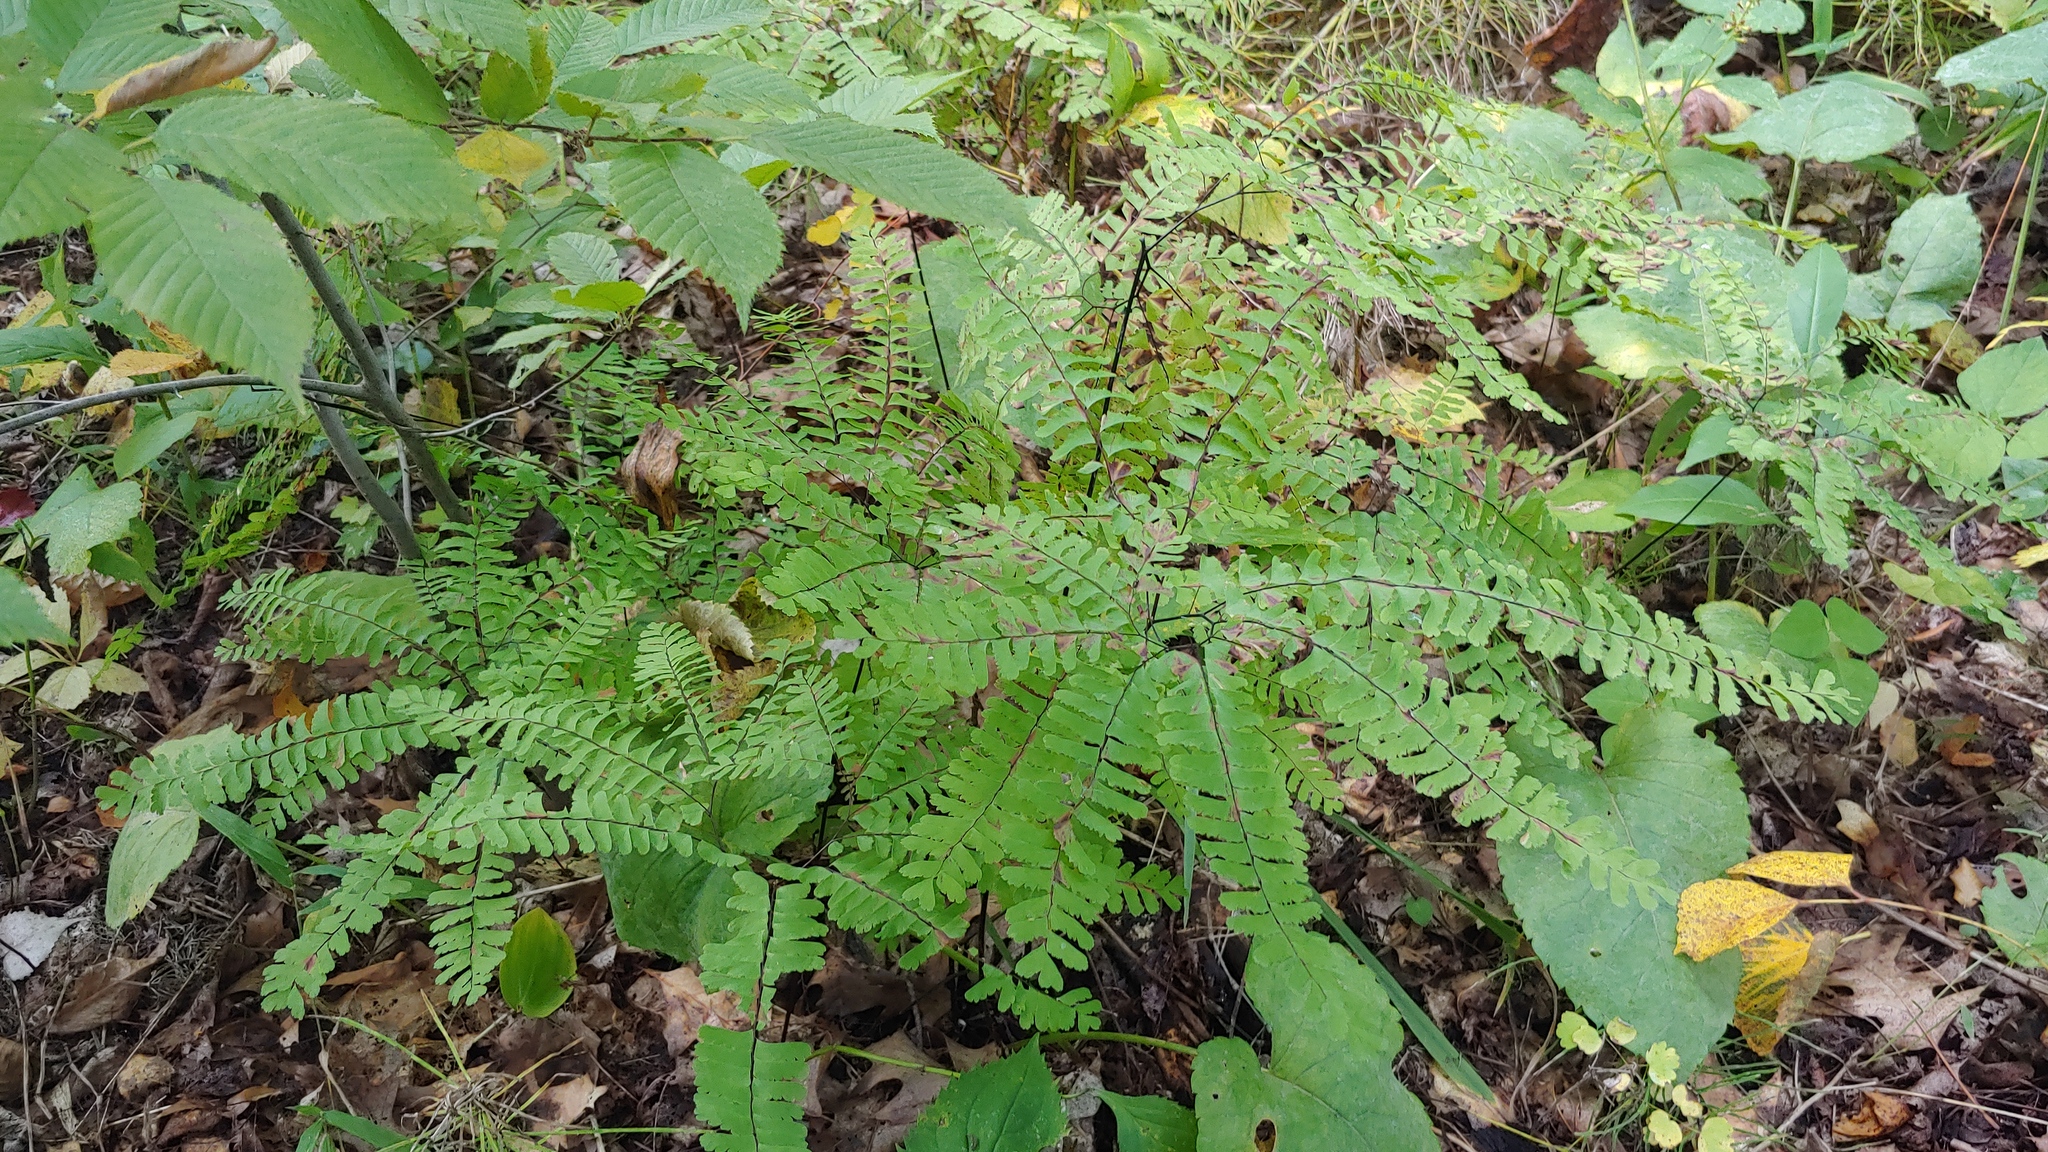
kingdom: Plantae
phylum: Tracheophyta
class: Polypodiopsida
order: Polypodiales
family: Pteridaceae
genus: Adiantum
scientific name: Adiantum pedatum
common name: Five-finger fern
